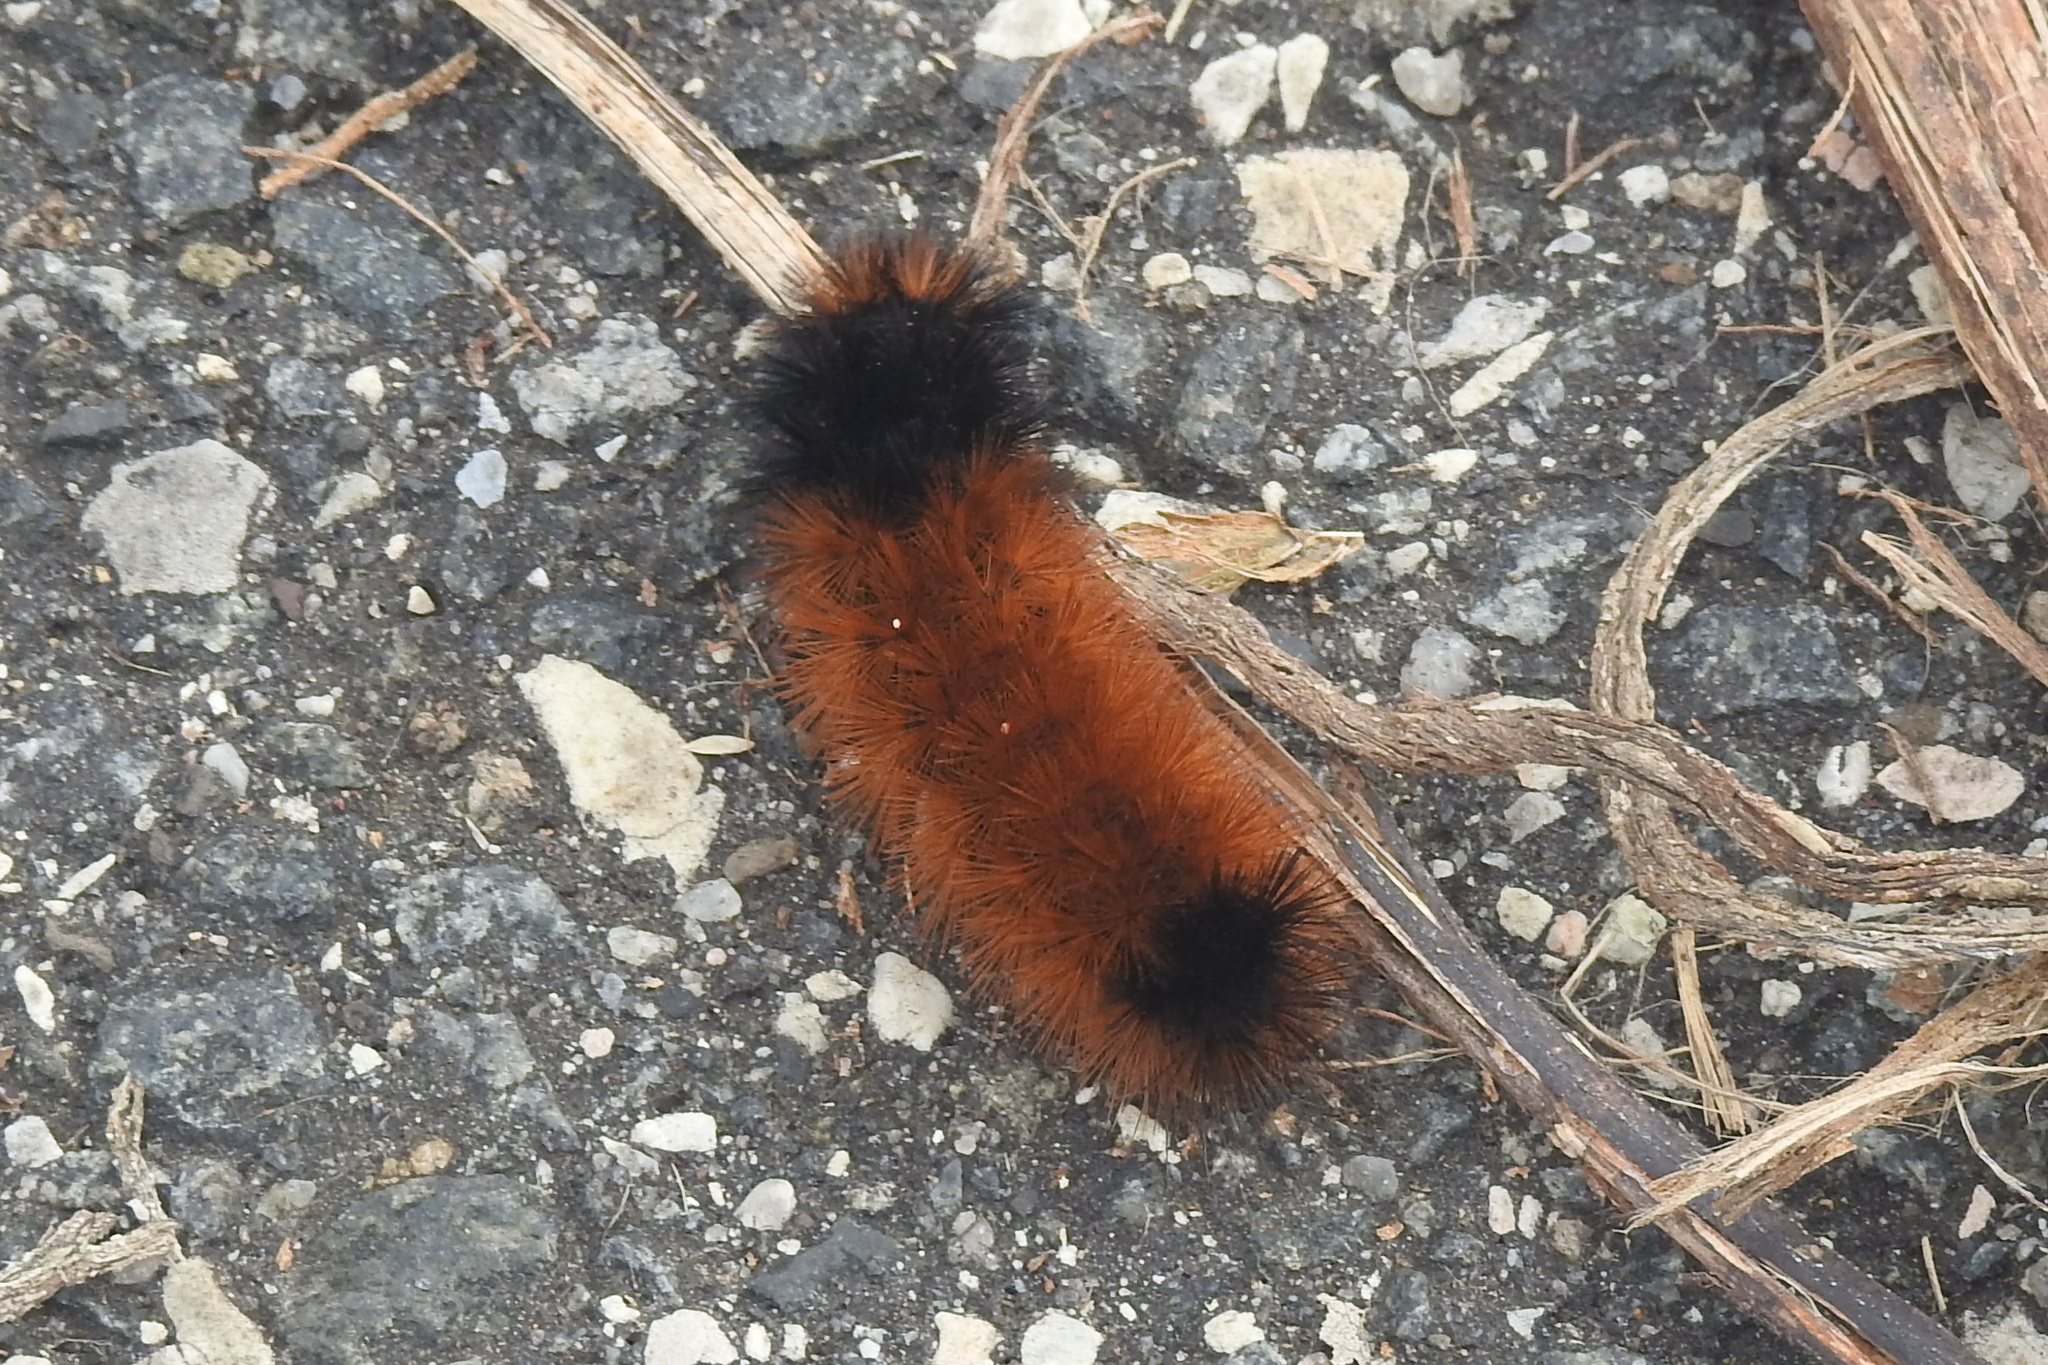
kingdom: Animalia
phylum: Arthropoda
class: Insecta
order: Lepidoptera
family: Erebidae
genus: Pyrrharctia
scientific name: Pyrrharctia isabella
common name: Isabella tiger moth
